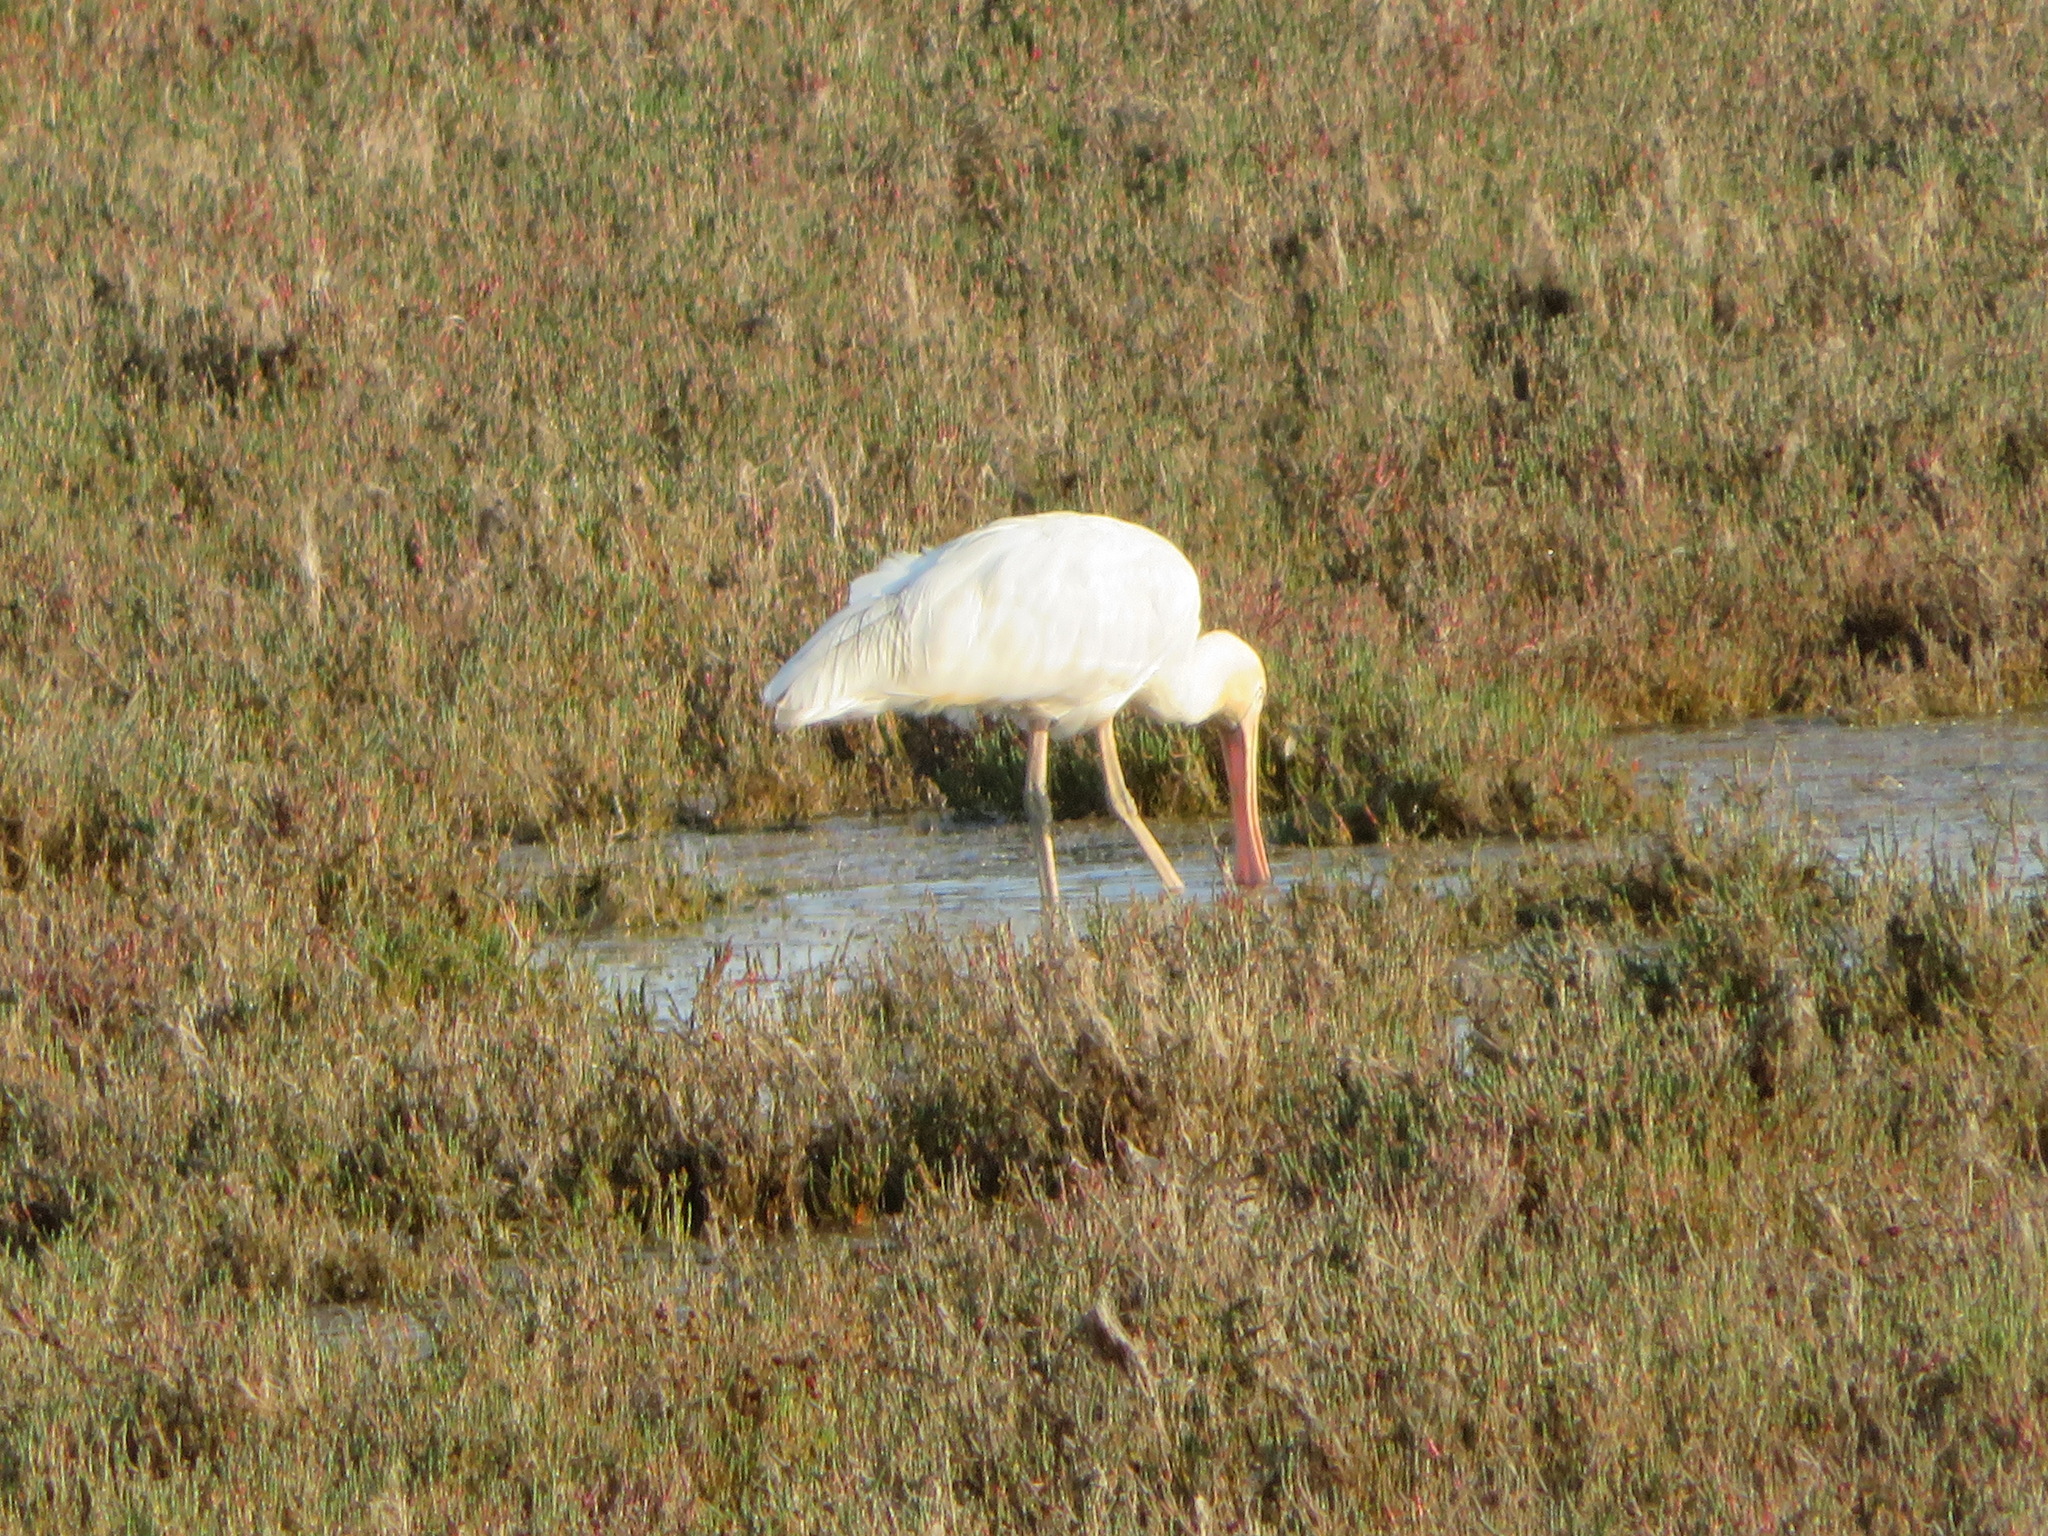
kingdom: Animalia
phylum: Chordata
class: Aves
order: Pelecaniformes
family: Threskiornithidae
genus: Platalea
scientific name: Platalea flavipes
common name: Yellow-billed spoonbill
